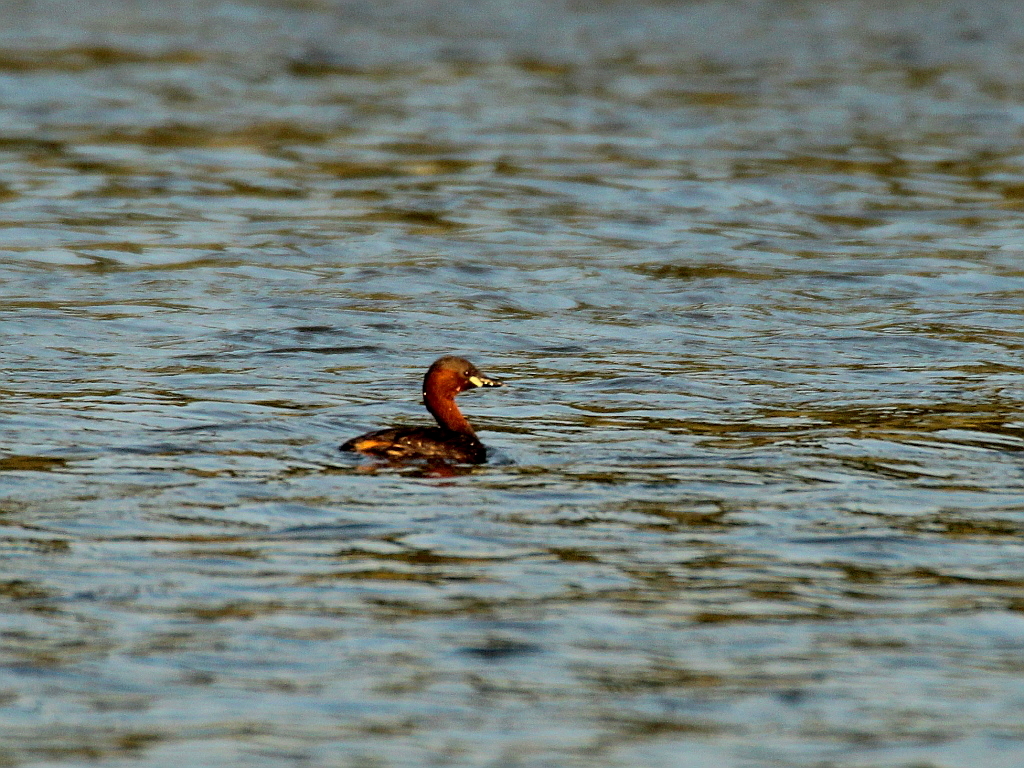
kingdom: Animalia
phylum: Chordata
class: Aves
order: Podicipediformes
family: Podicipedidae
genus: Tachybaptus
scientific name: Tachybaptus ruficollis
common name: Little grebe
